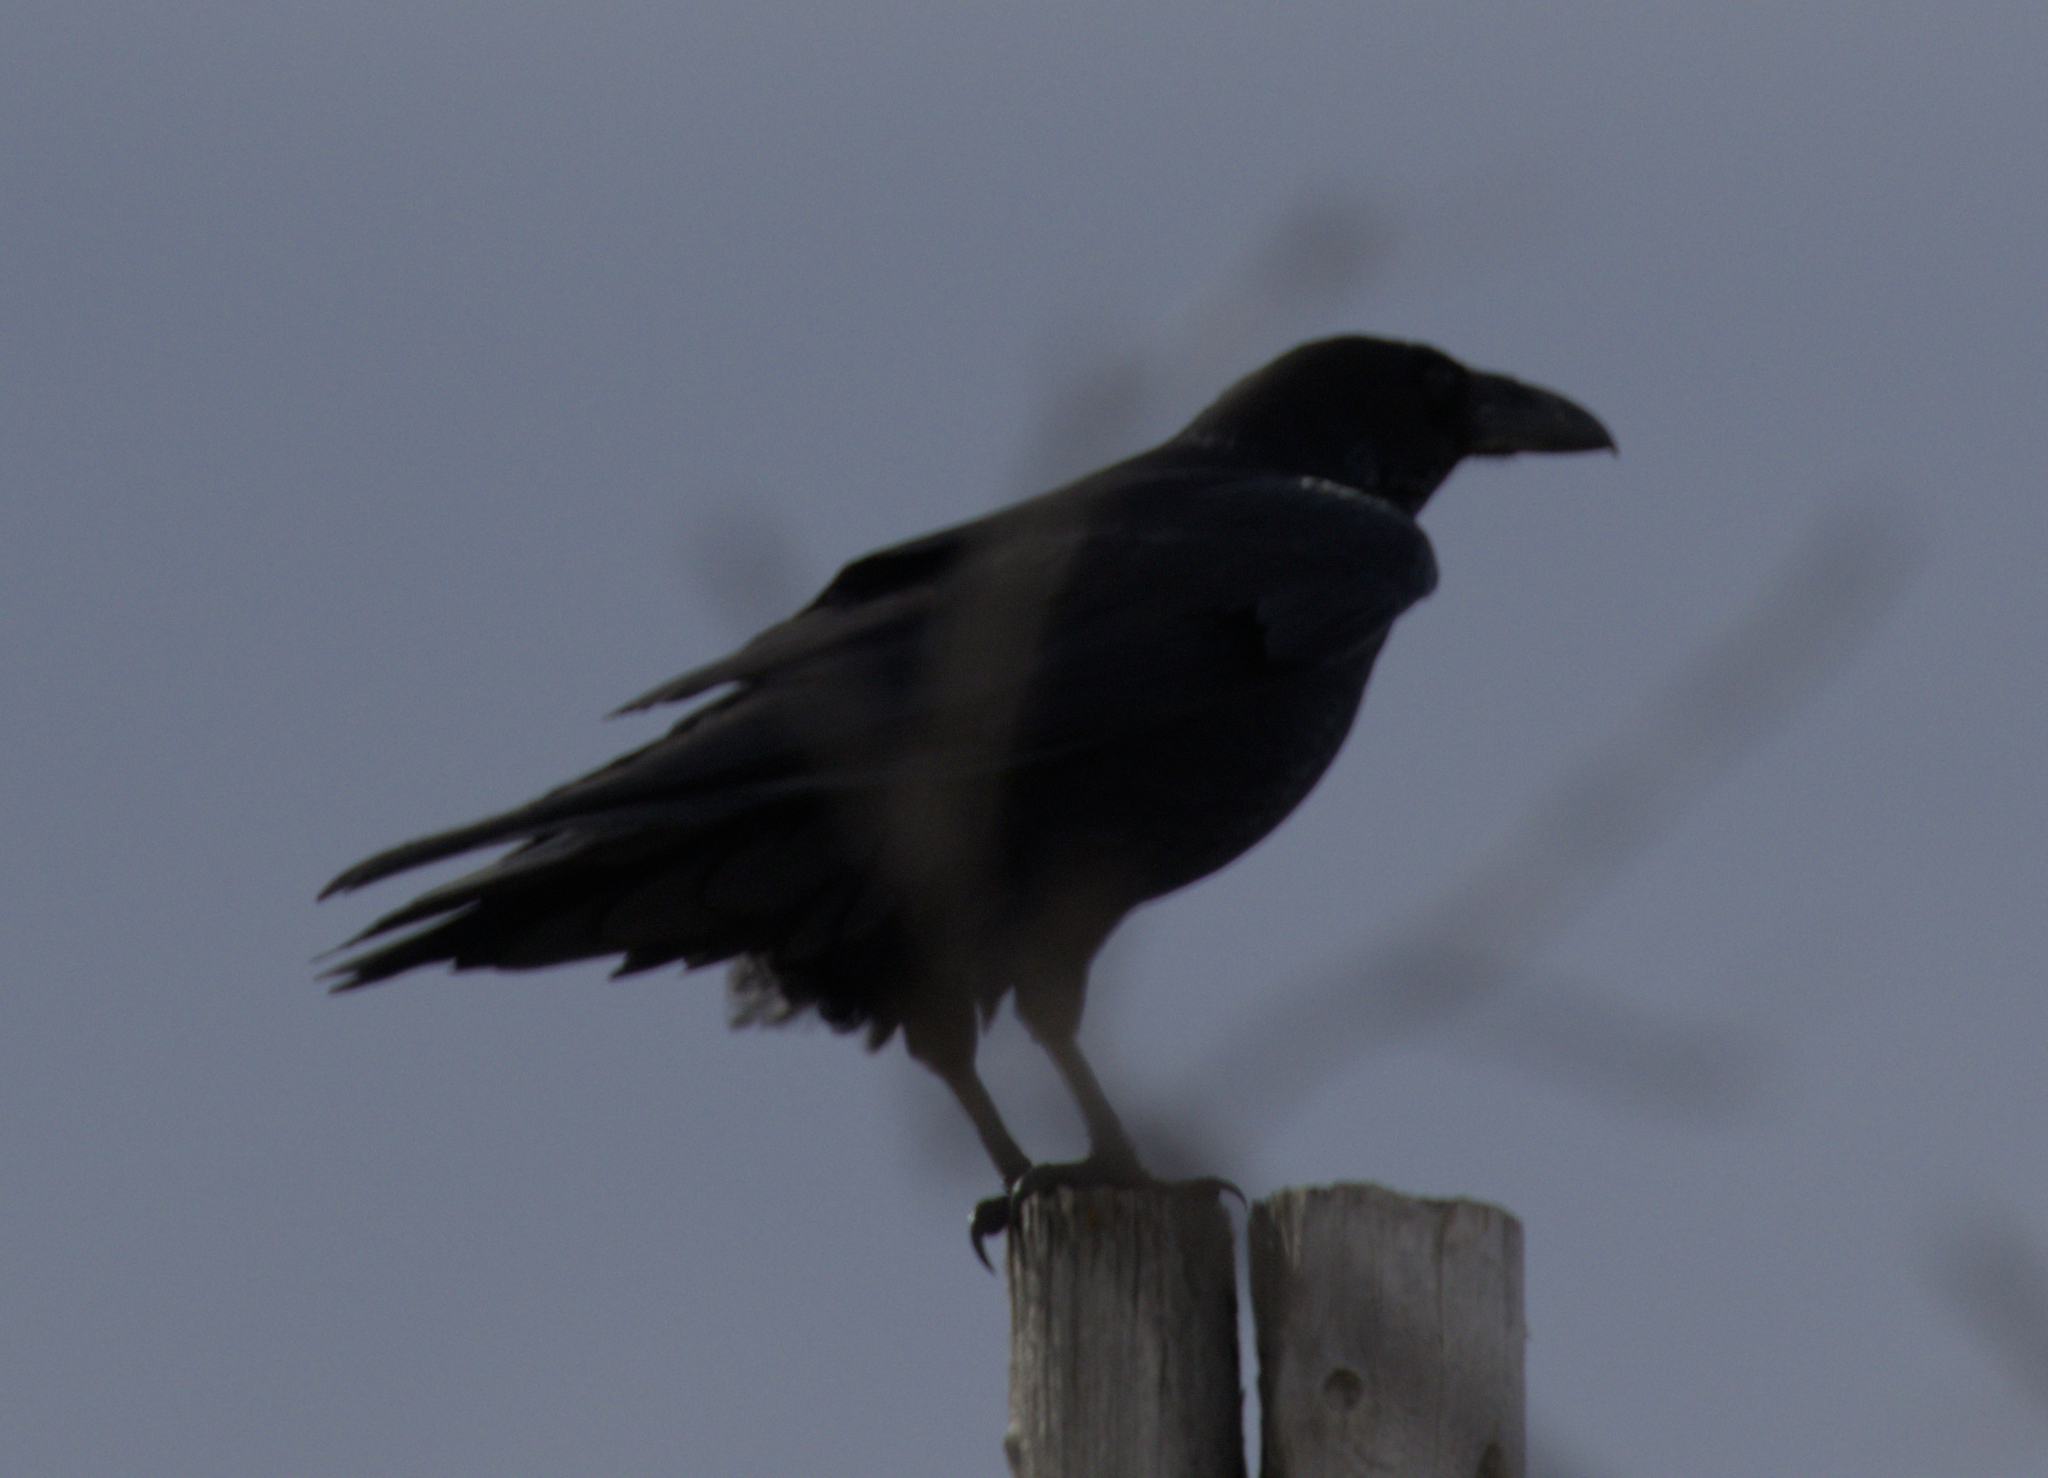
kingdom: Animalia
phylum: Chordata
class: Aves
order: Passeriformes
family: Corvidae
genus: Corvus
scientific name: Corvus corax
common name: Common raven
